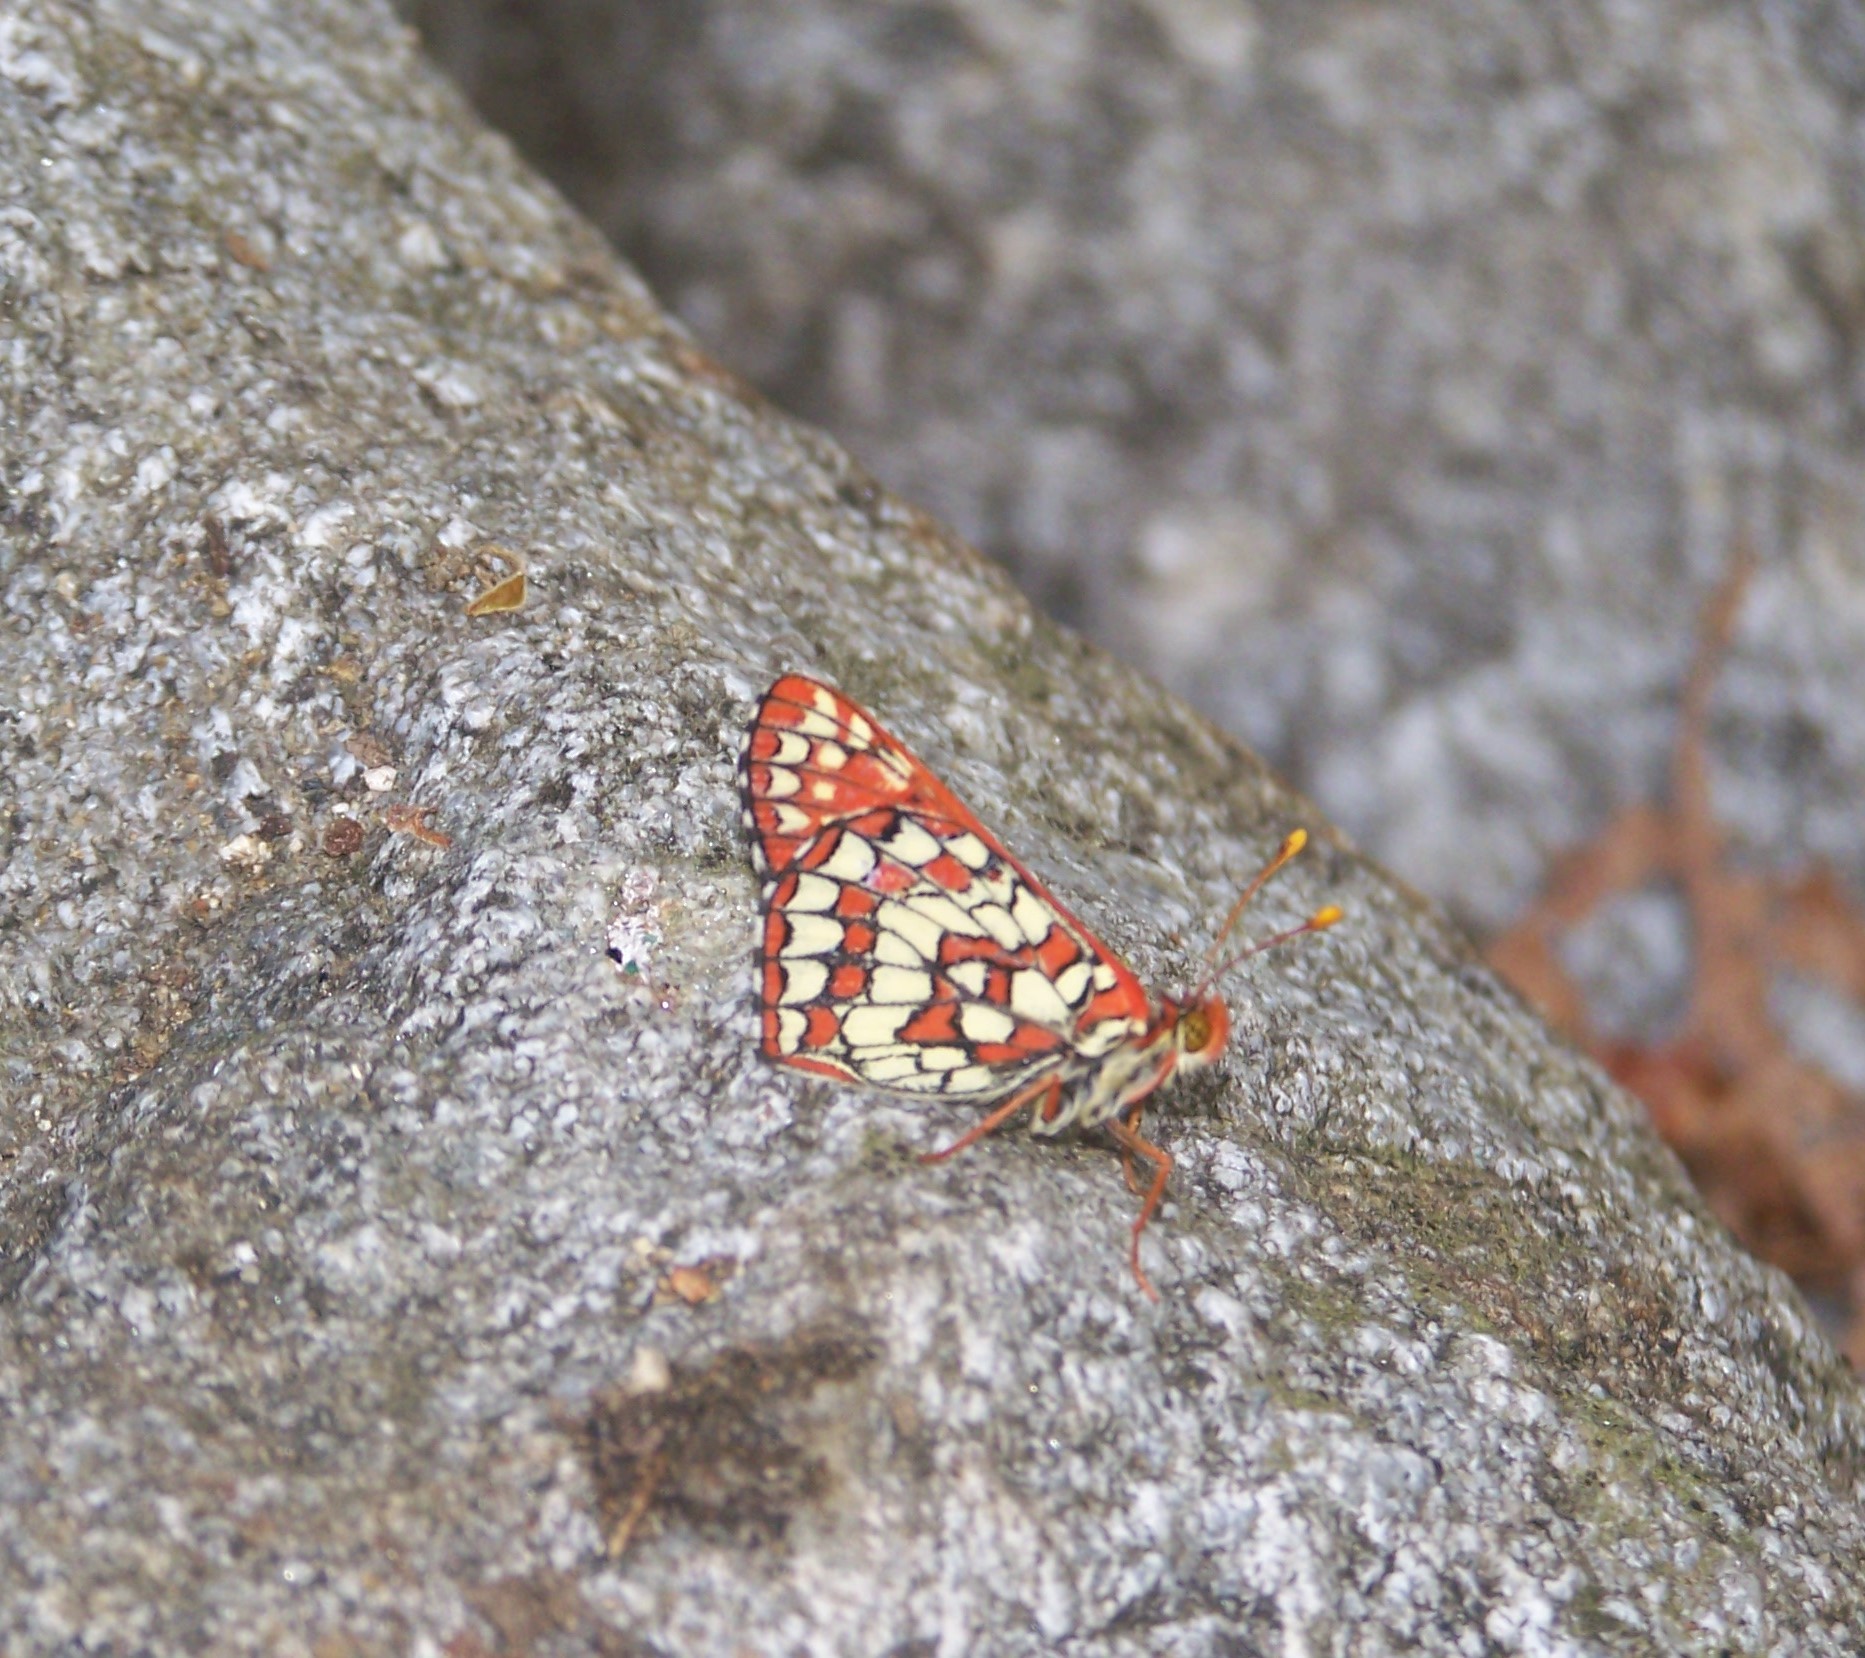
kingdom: Animalia
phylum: Arthropoda
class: Insecta
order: Lepidoptera
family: Nymphalidae
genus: Occidryas
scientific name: Occidryas chalcedona
